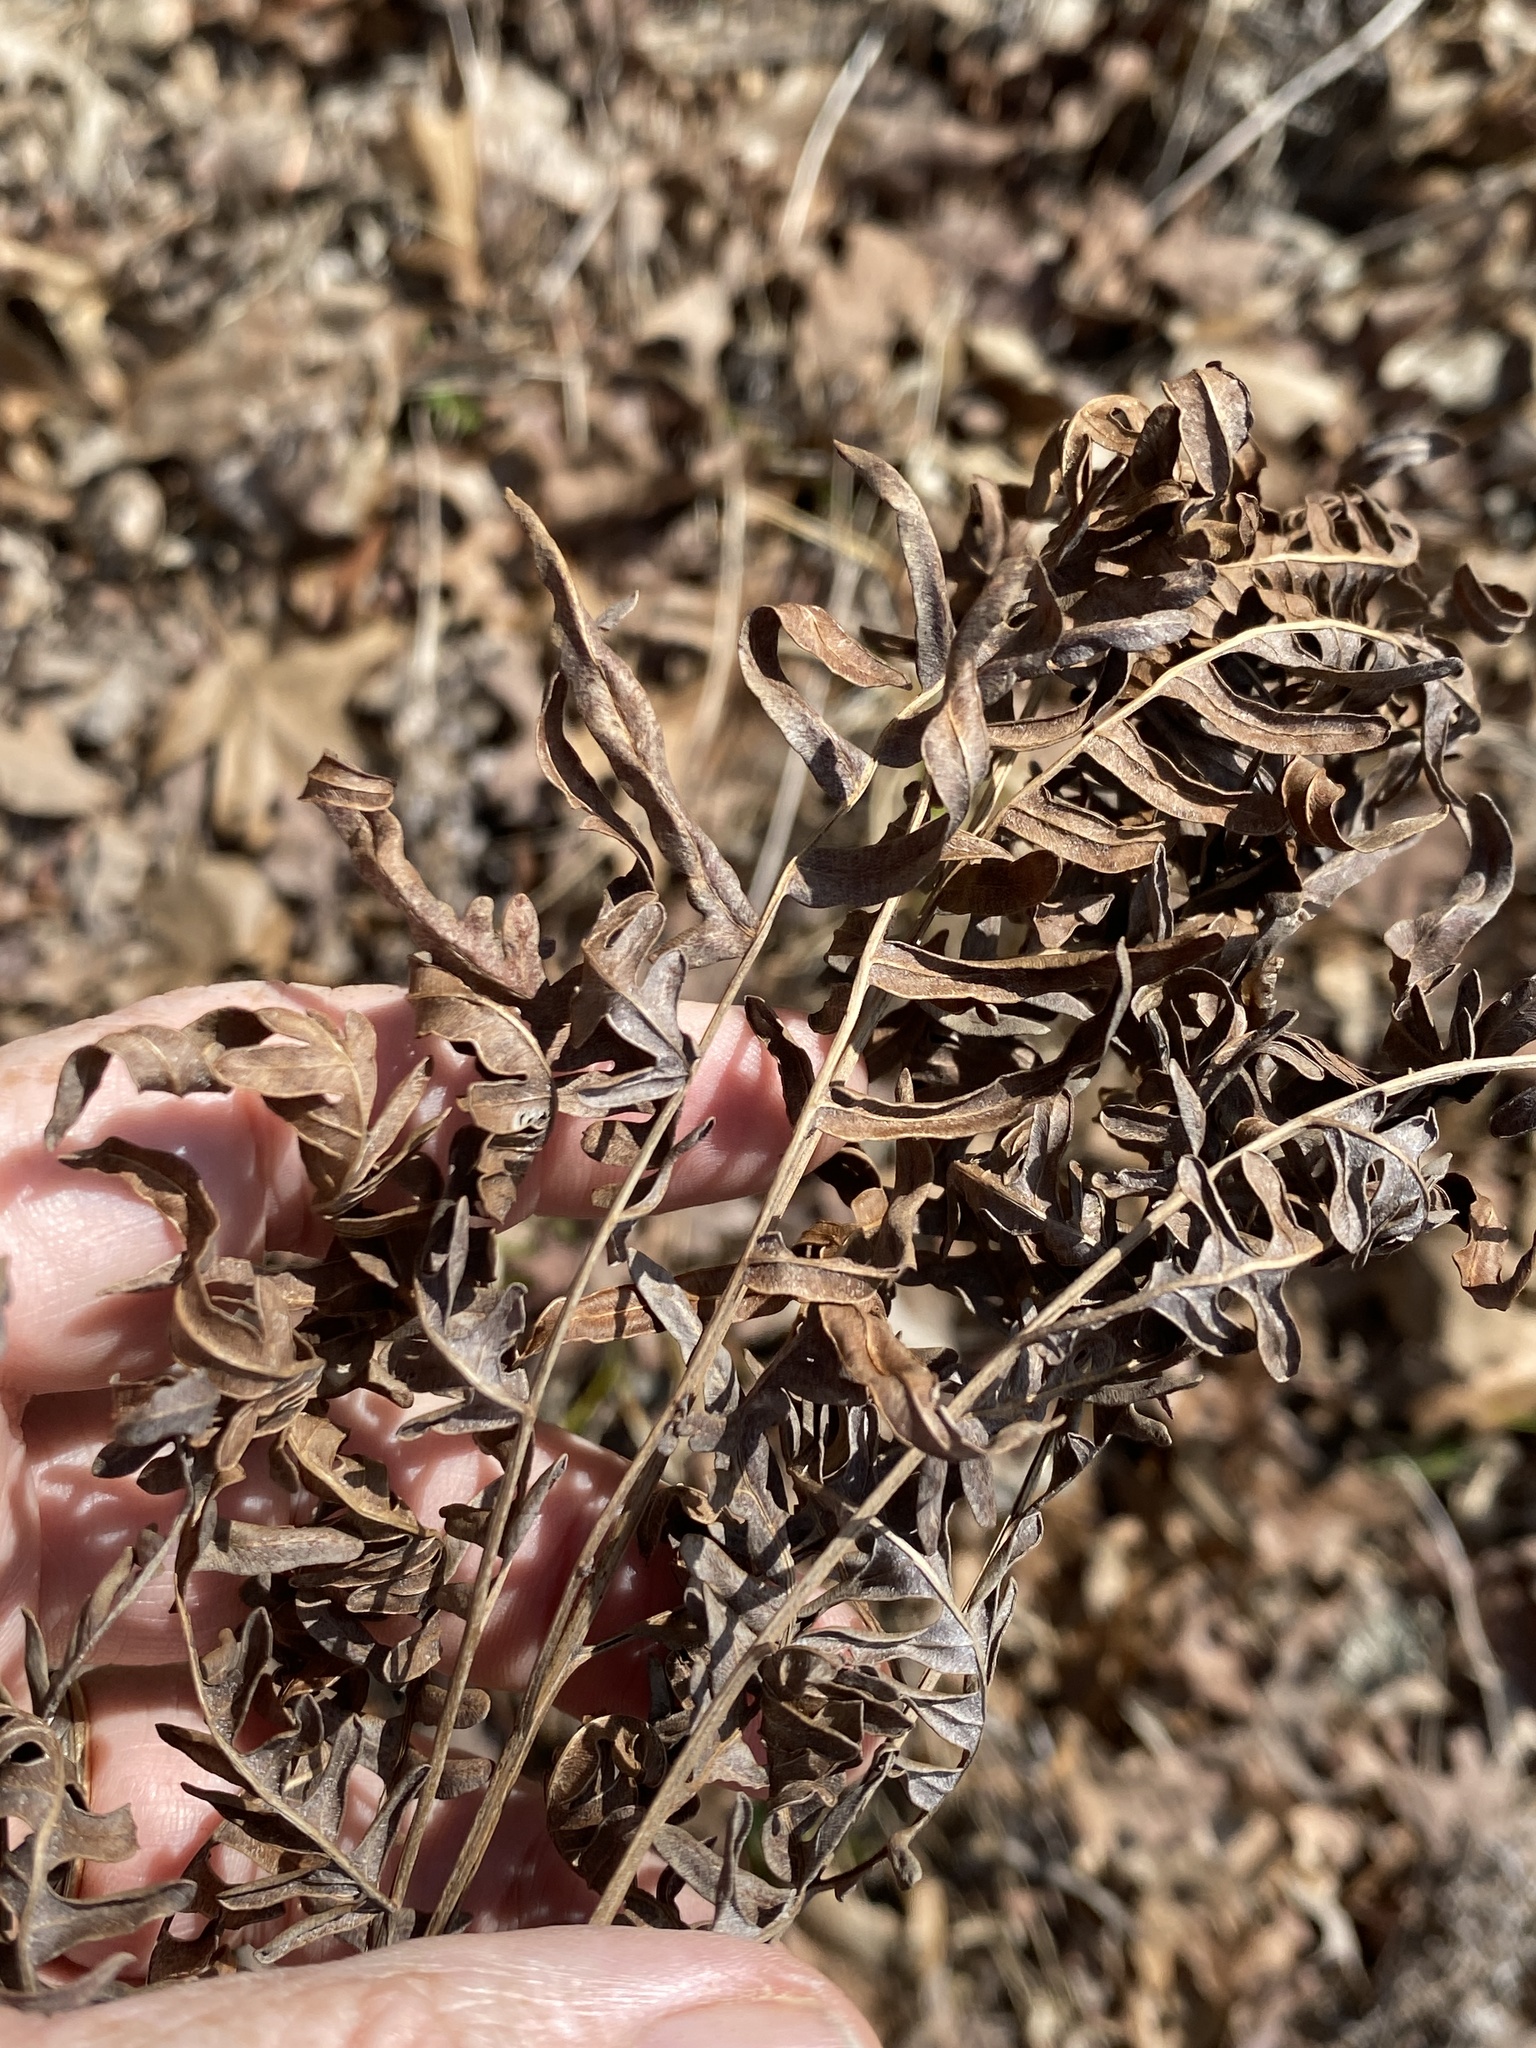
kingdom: Plantae
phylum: Tracheophyta
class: Polypodiopsida
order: Polypodiales
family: Dennstaedtiaceae
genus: Pteridium
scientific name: Pteridium aquilinum
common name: Bracken
